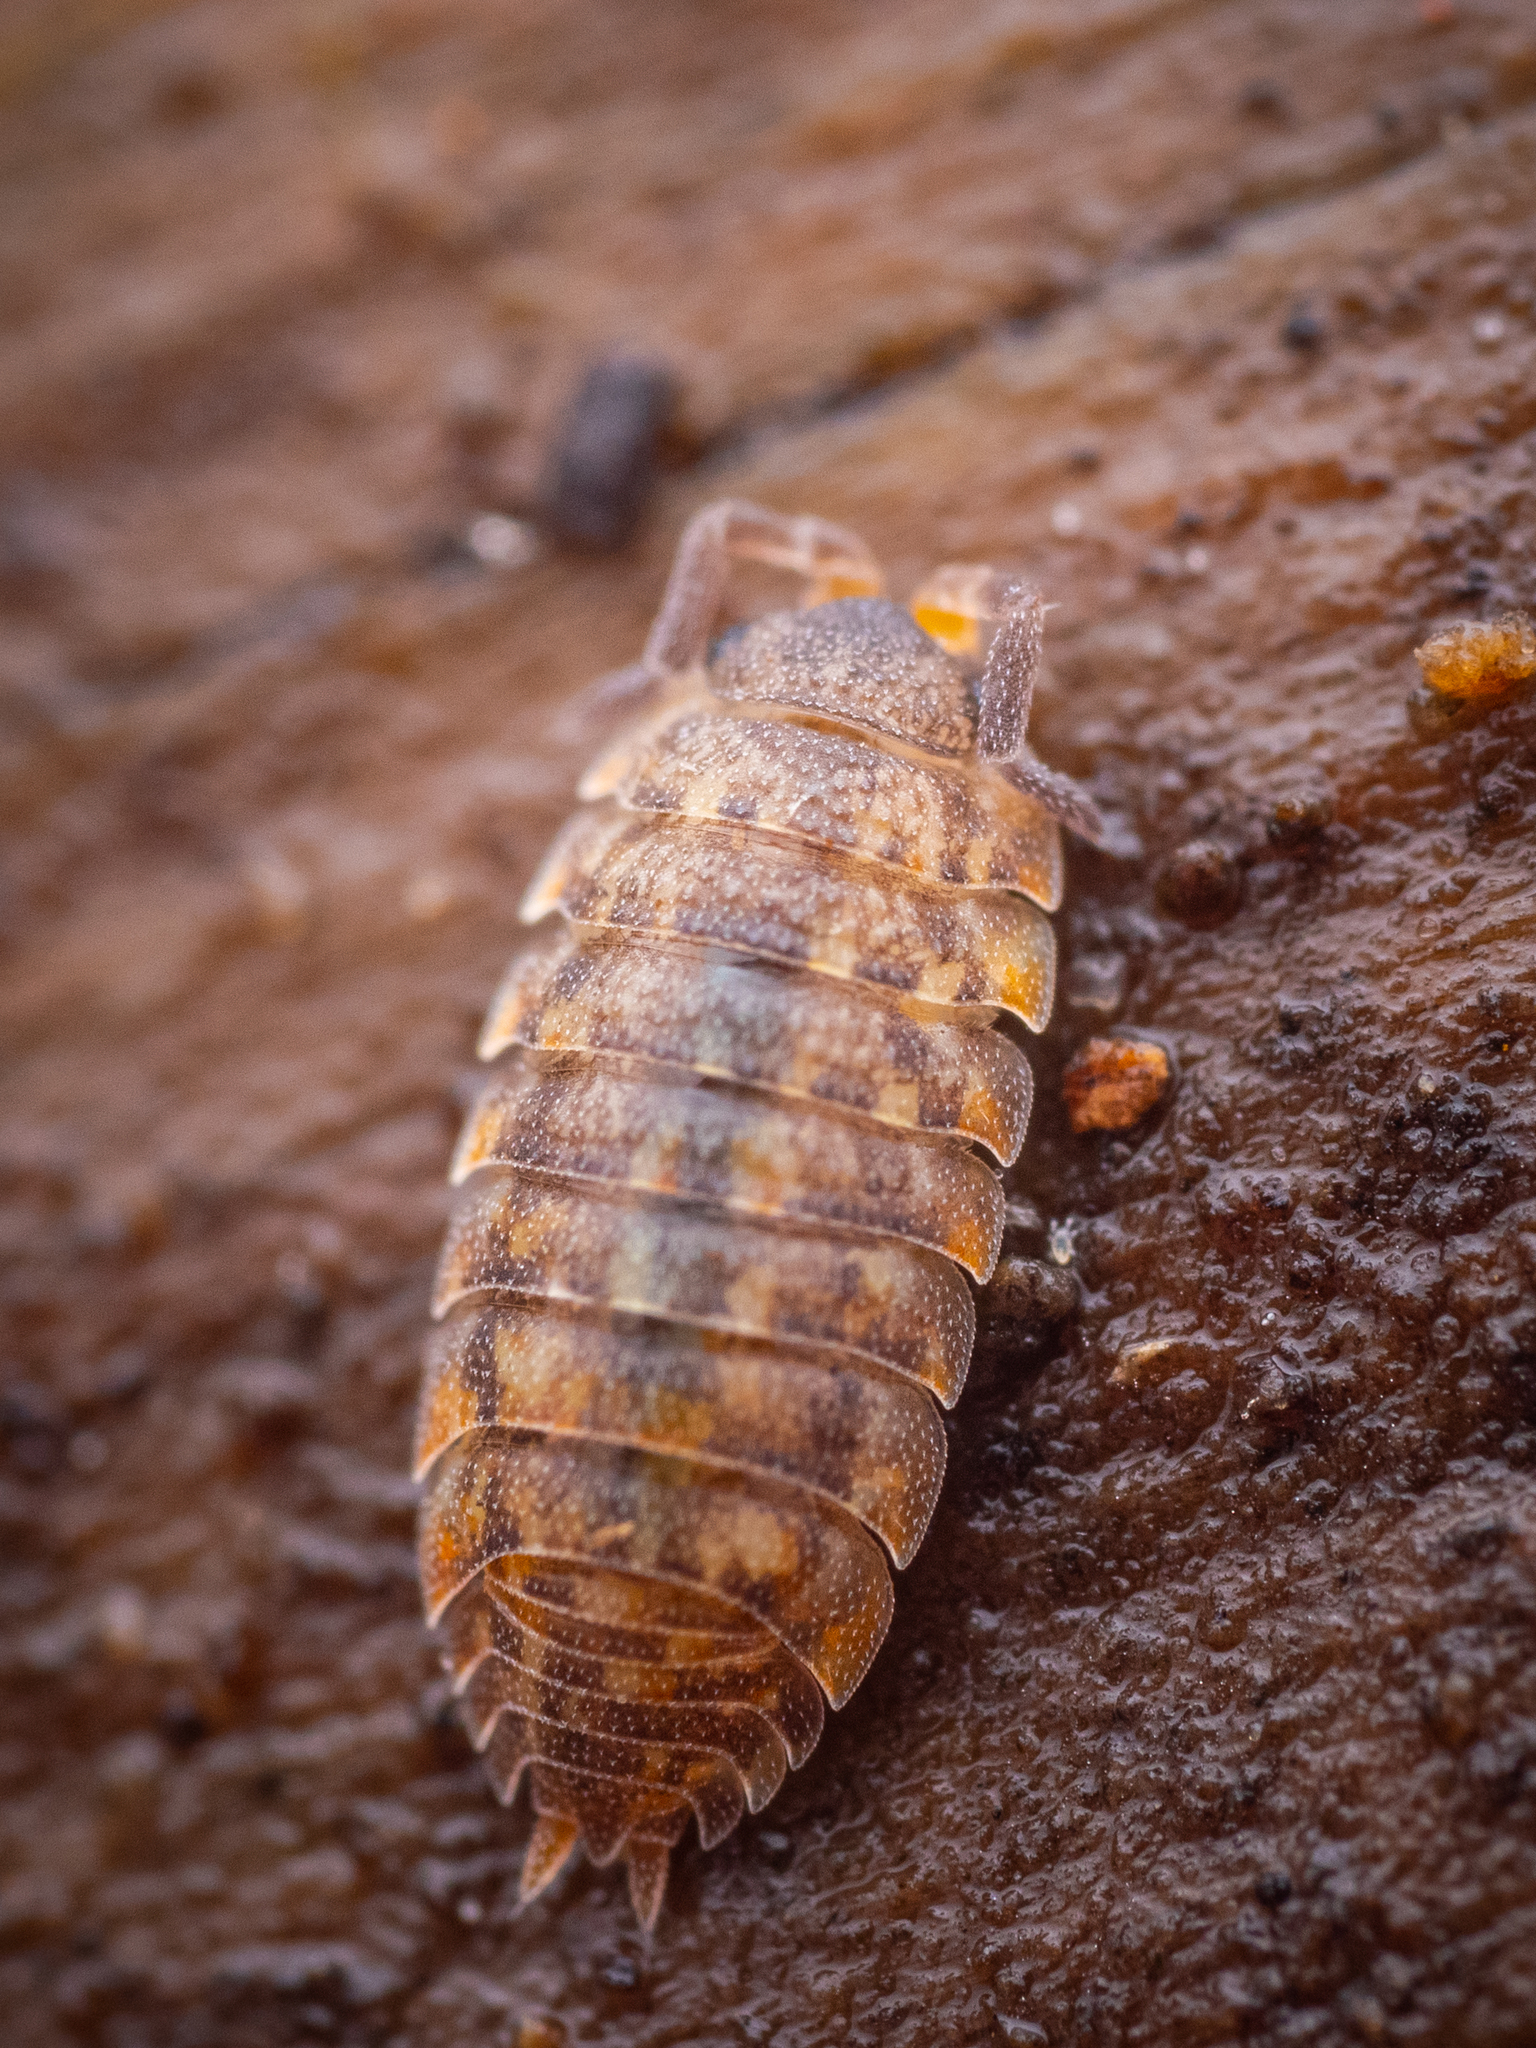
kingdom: Animalia
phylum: Arthropoda
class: Malacostraca
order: Isopoda
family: Porcellionidae
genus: Porcellio
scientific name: Porcellio scaber
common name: Common rough woodlouse
